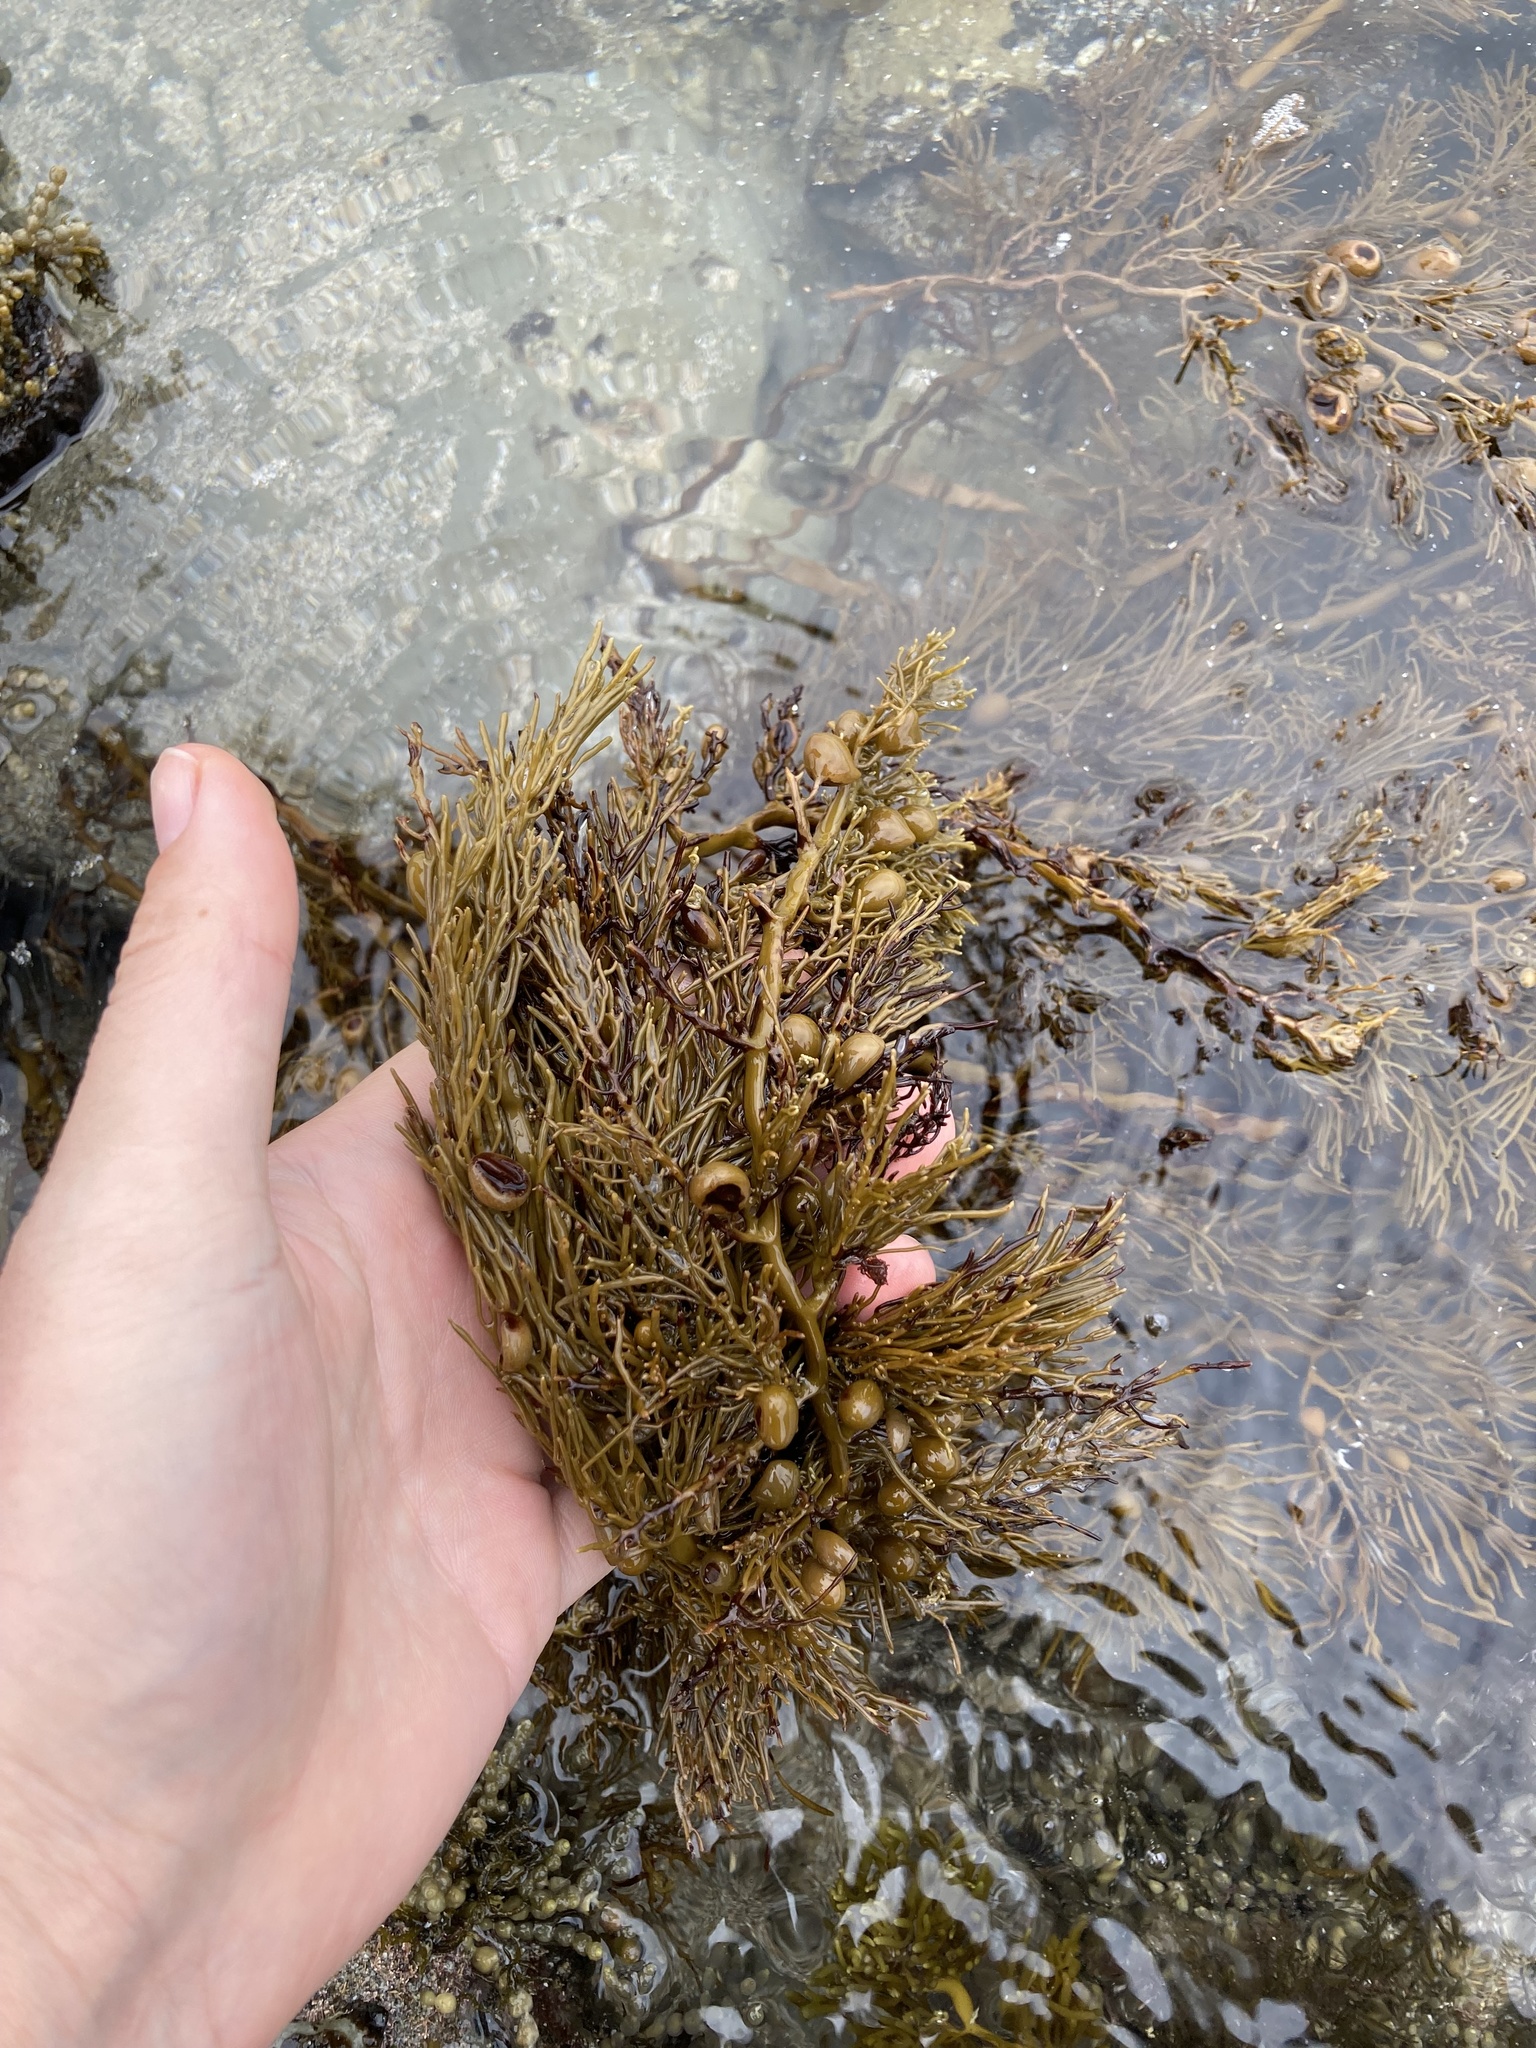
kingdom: Chromista
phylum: Ochrophyta
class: Phaeophyceae
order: Fucales
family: Sargassaceae
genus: Cystophora
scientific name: Cystophora retroflexa
